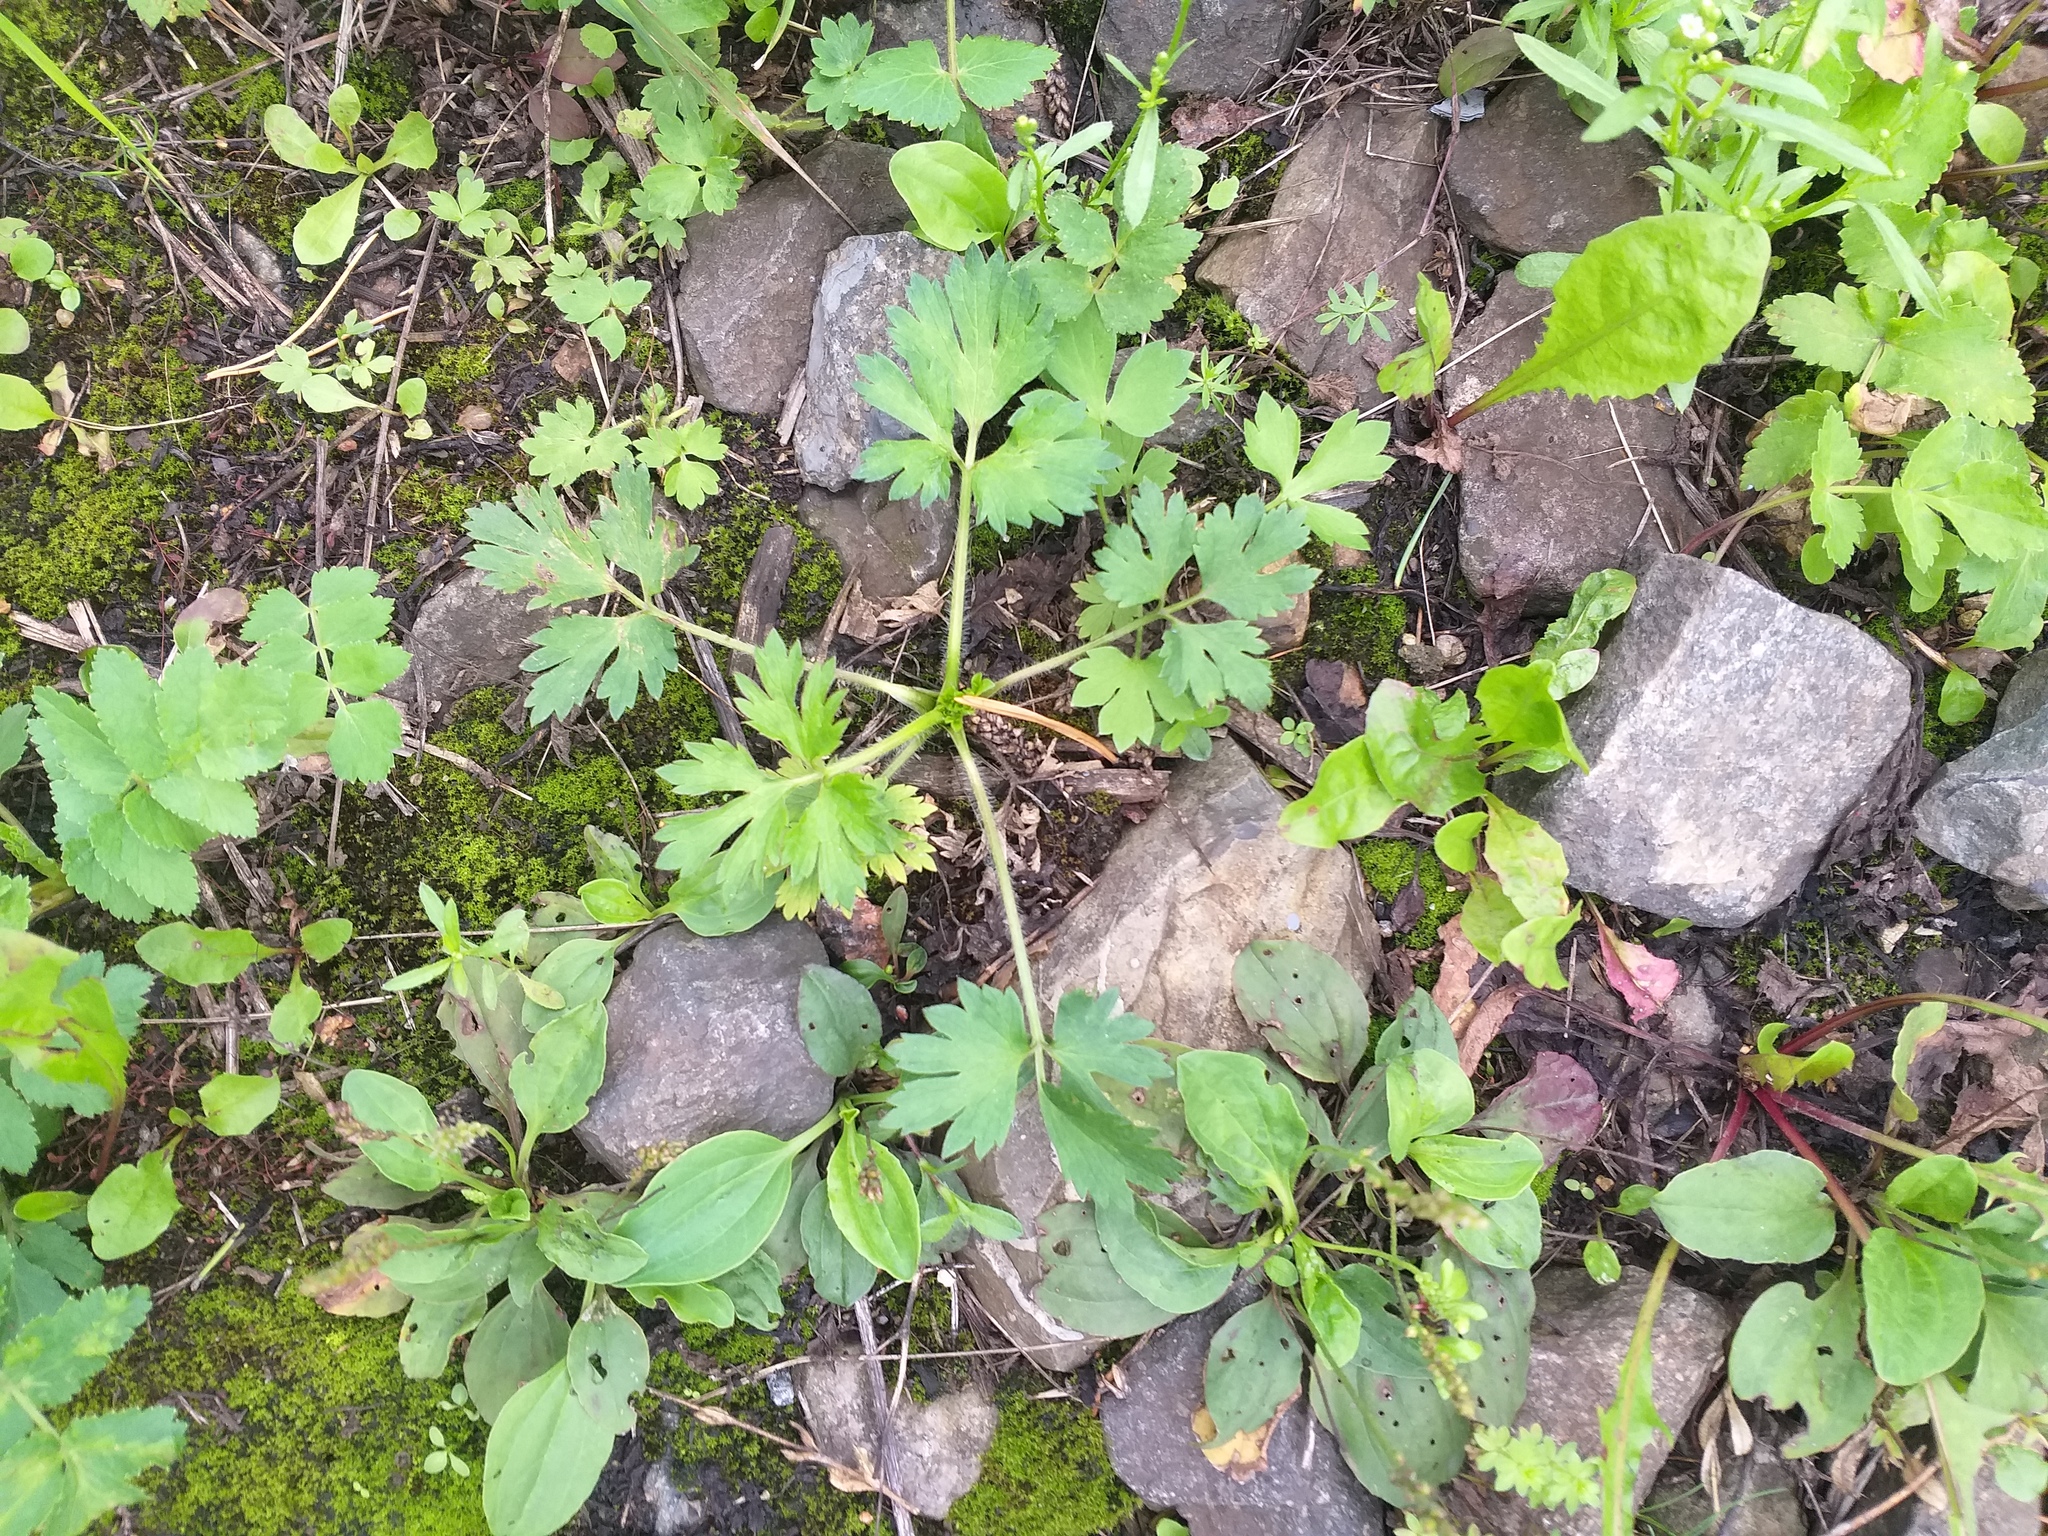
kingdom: Plantae
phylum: Tracheophyta
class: Magnoliopsida
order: Ranunculales
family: Ranunculaceae
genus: Ranunculus
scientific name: Ranunculus repens
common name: Creeping buttercup
